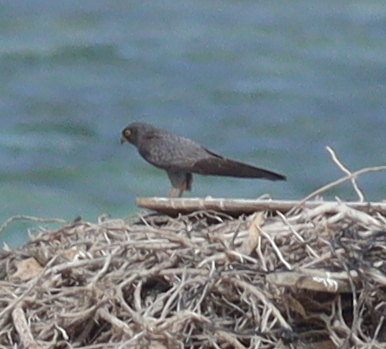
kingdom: Animalia
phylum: Chordata
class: Aves
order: Falconiformes
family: Falconidae
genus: Falco
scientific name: Falco concolor
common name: Sooty falcon
